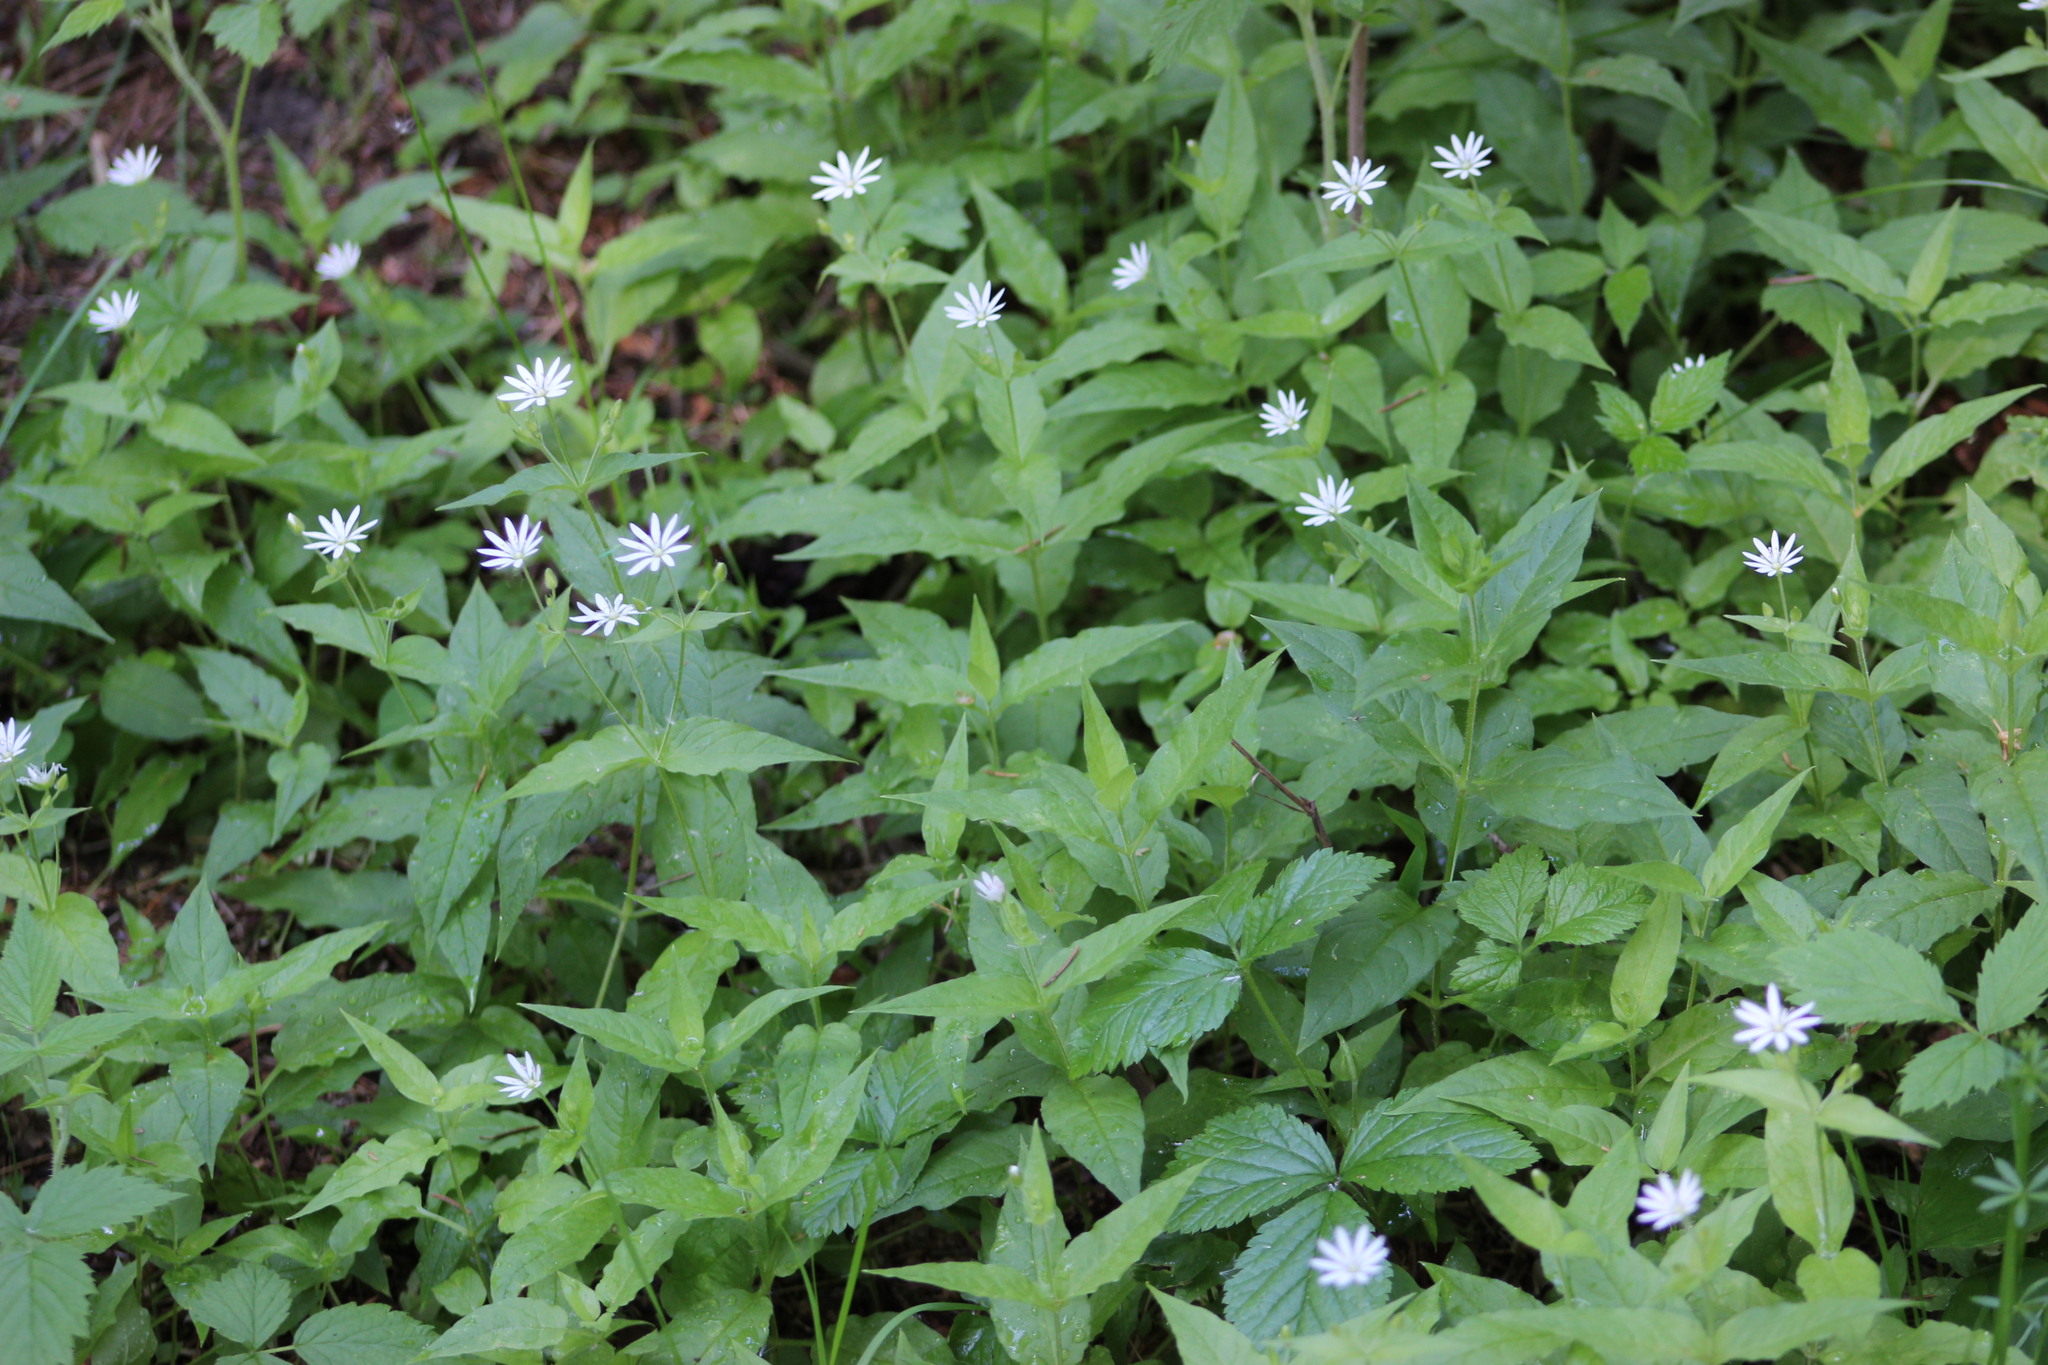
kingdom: Plantae
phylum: Tracheophyta
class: Magnoliopsida
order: Caryophyllales
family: Caryophyllaceae
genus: Stellaria
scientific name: Stellaria bungeana
